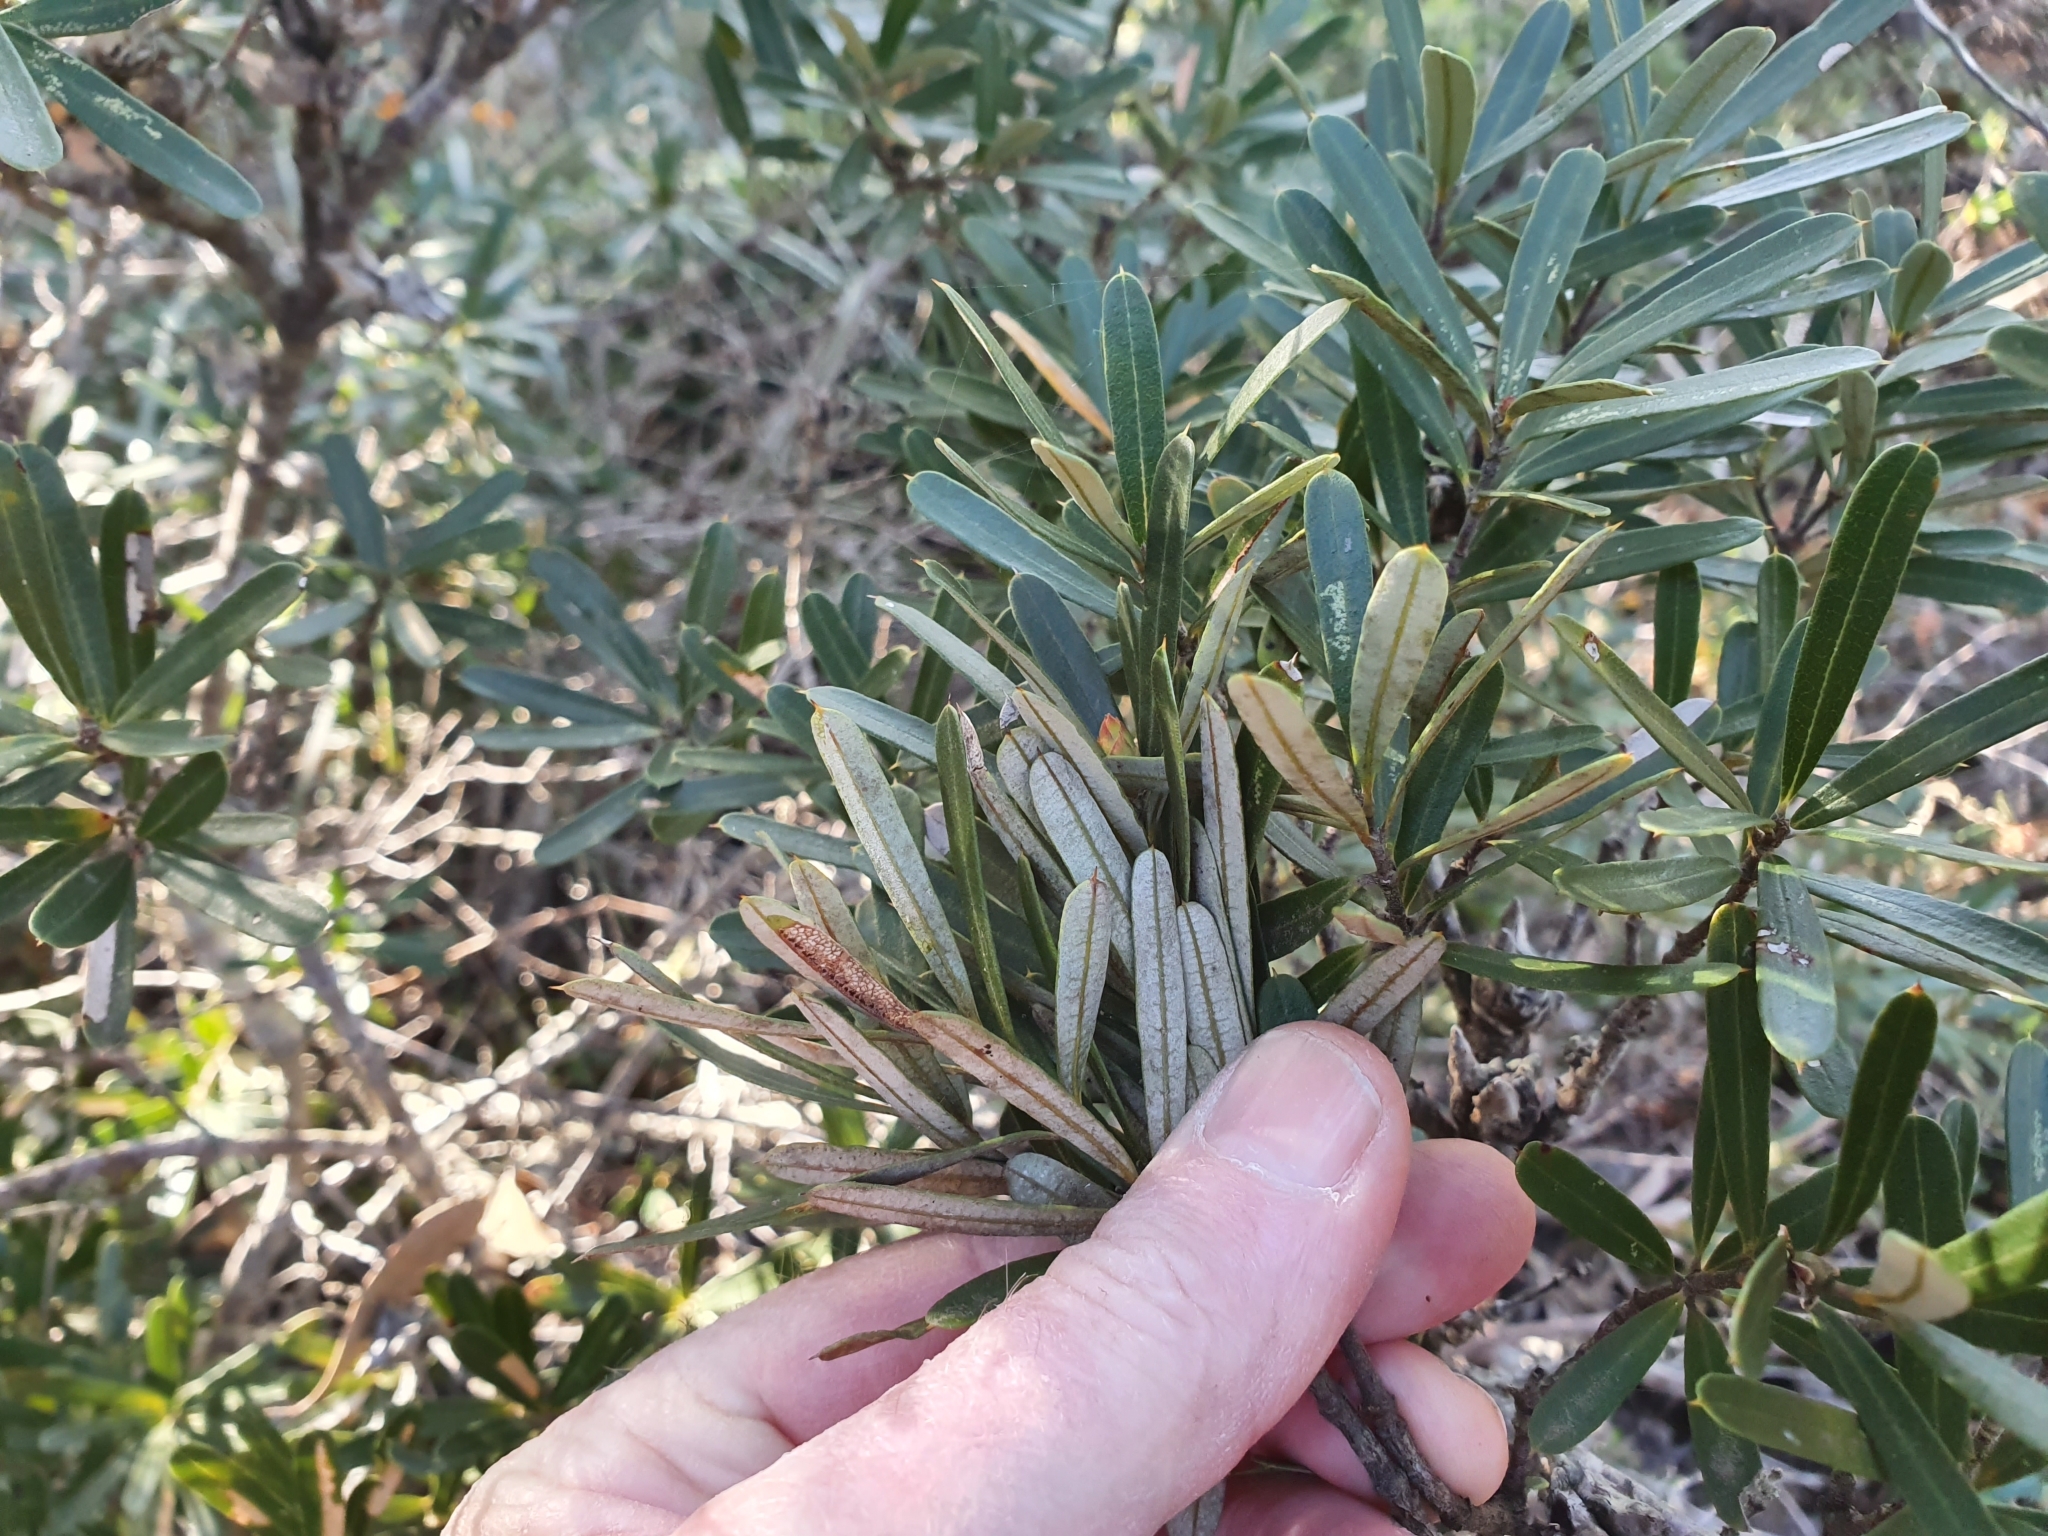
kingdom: Plantae
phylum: Tracheophyta
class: Magnoliopsida
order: Proteales
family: Proteaceae
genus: Lambertia
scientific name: Lambertia formosa
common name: Mountain-devil
